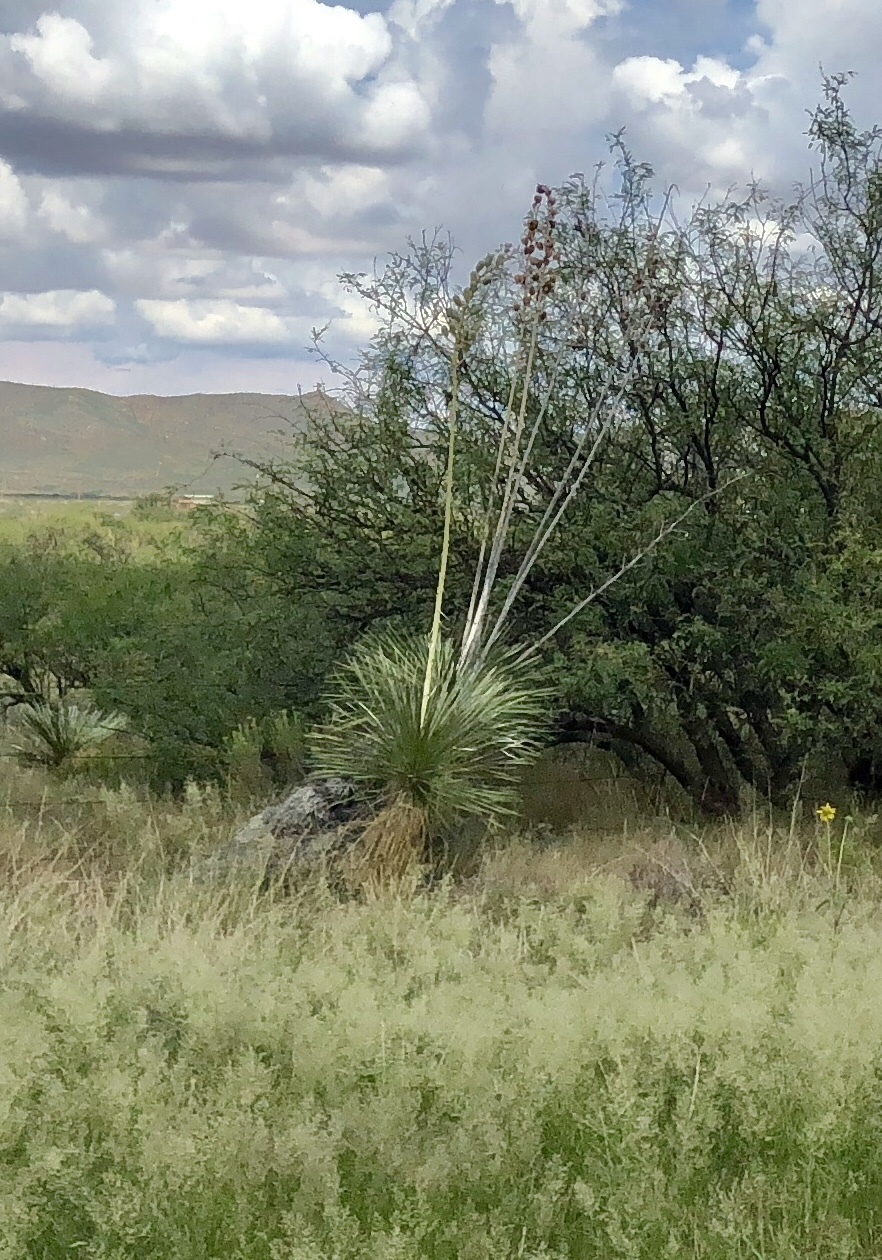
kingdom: Plantae
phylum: Tracheophyta
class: Liliopsida
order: Asparagales
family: Asparagaceae
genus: Yucca
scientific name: Yucca elata
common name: Palmella
